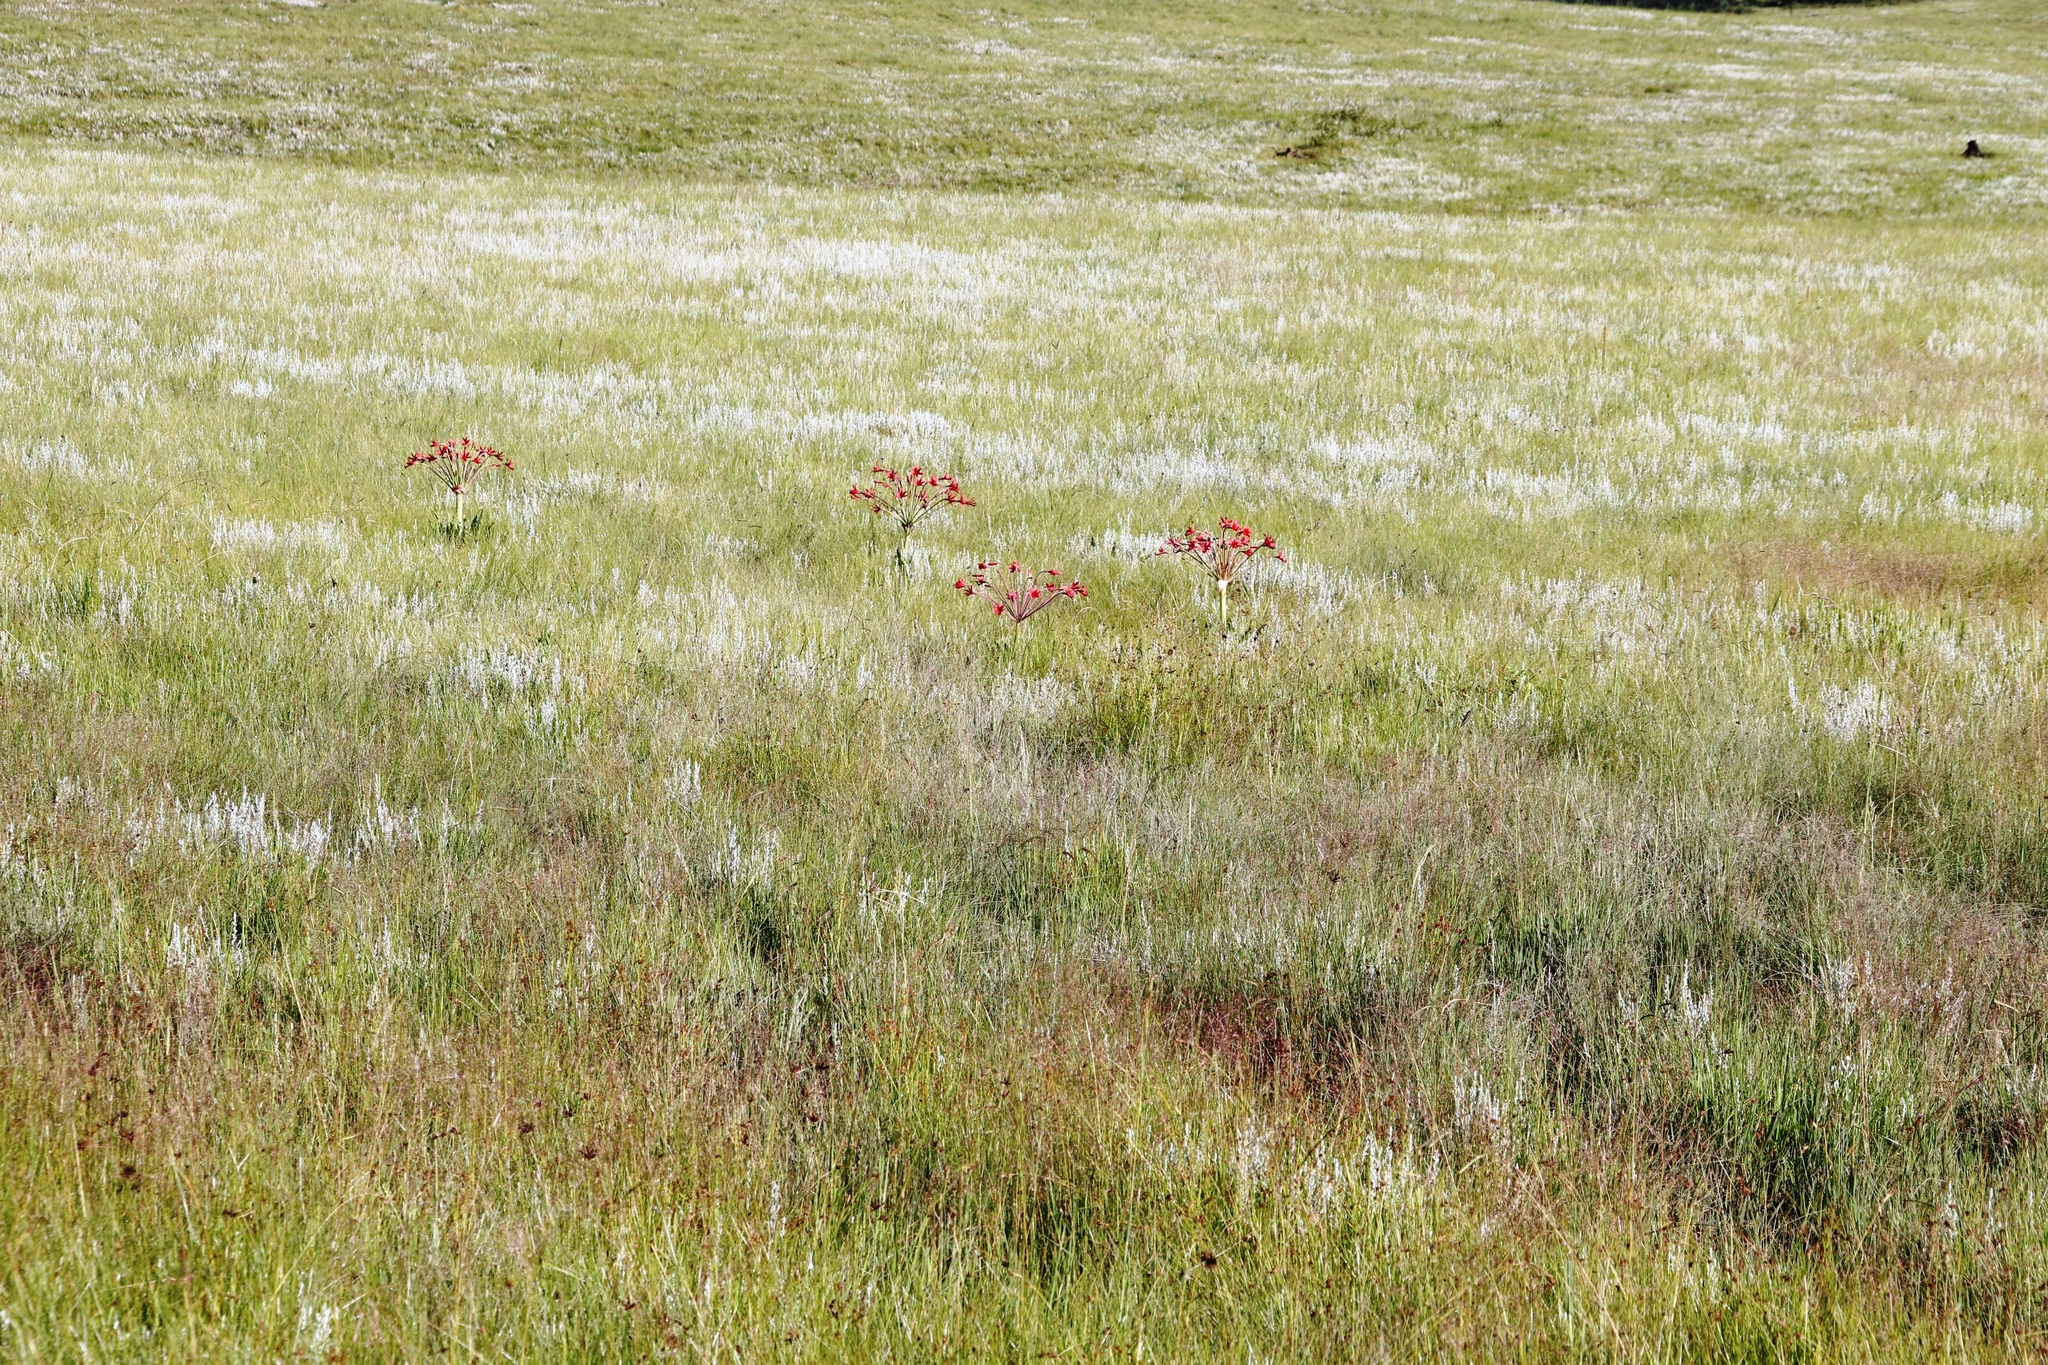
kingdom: Plantae
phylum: Tracheophyta
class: Liliopsida
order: Asparagales
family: Amaryllidaceae
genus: Brunsvigia
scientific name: Brunsvigia undulata
